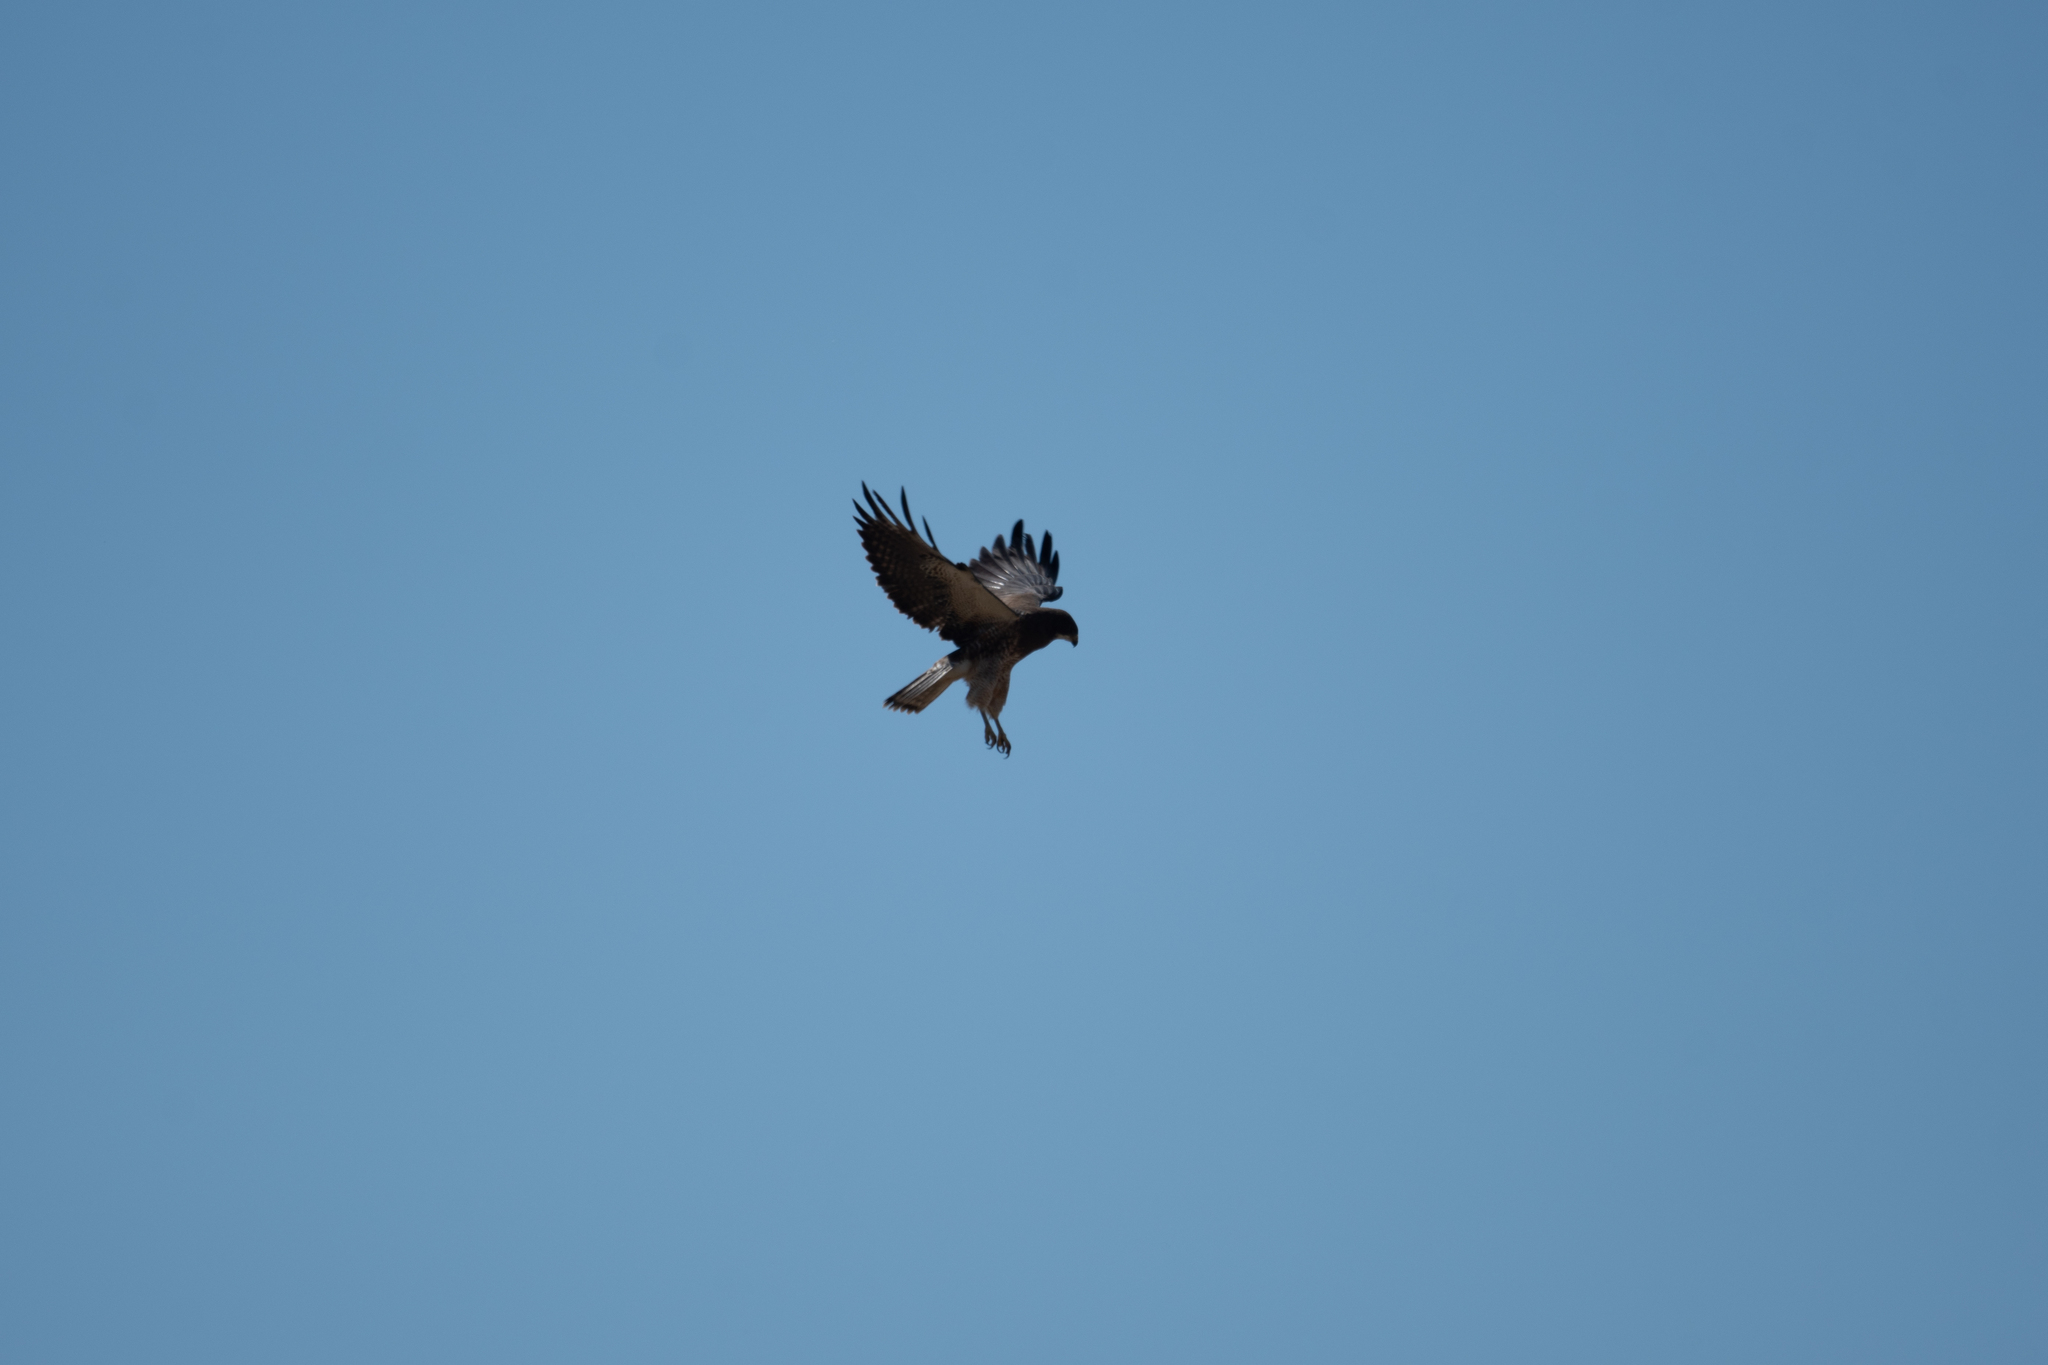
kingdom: Animalia
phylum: Chordata
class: Aves
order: Accipitriformes
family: Accipitridae
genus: Buteo
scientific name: Buteo swainsoni
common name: Swainson's hawk
